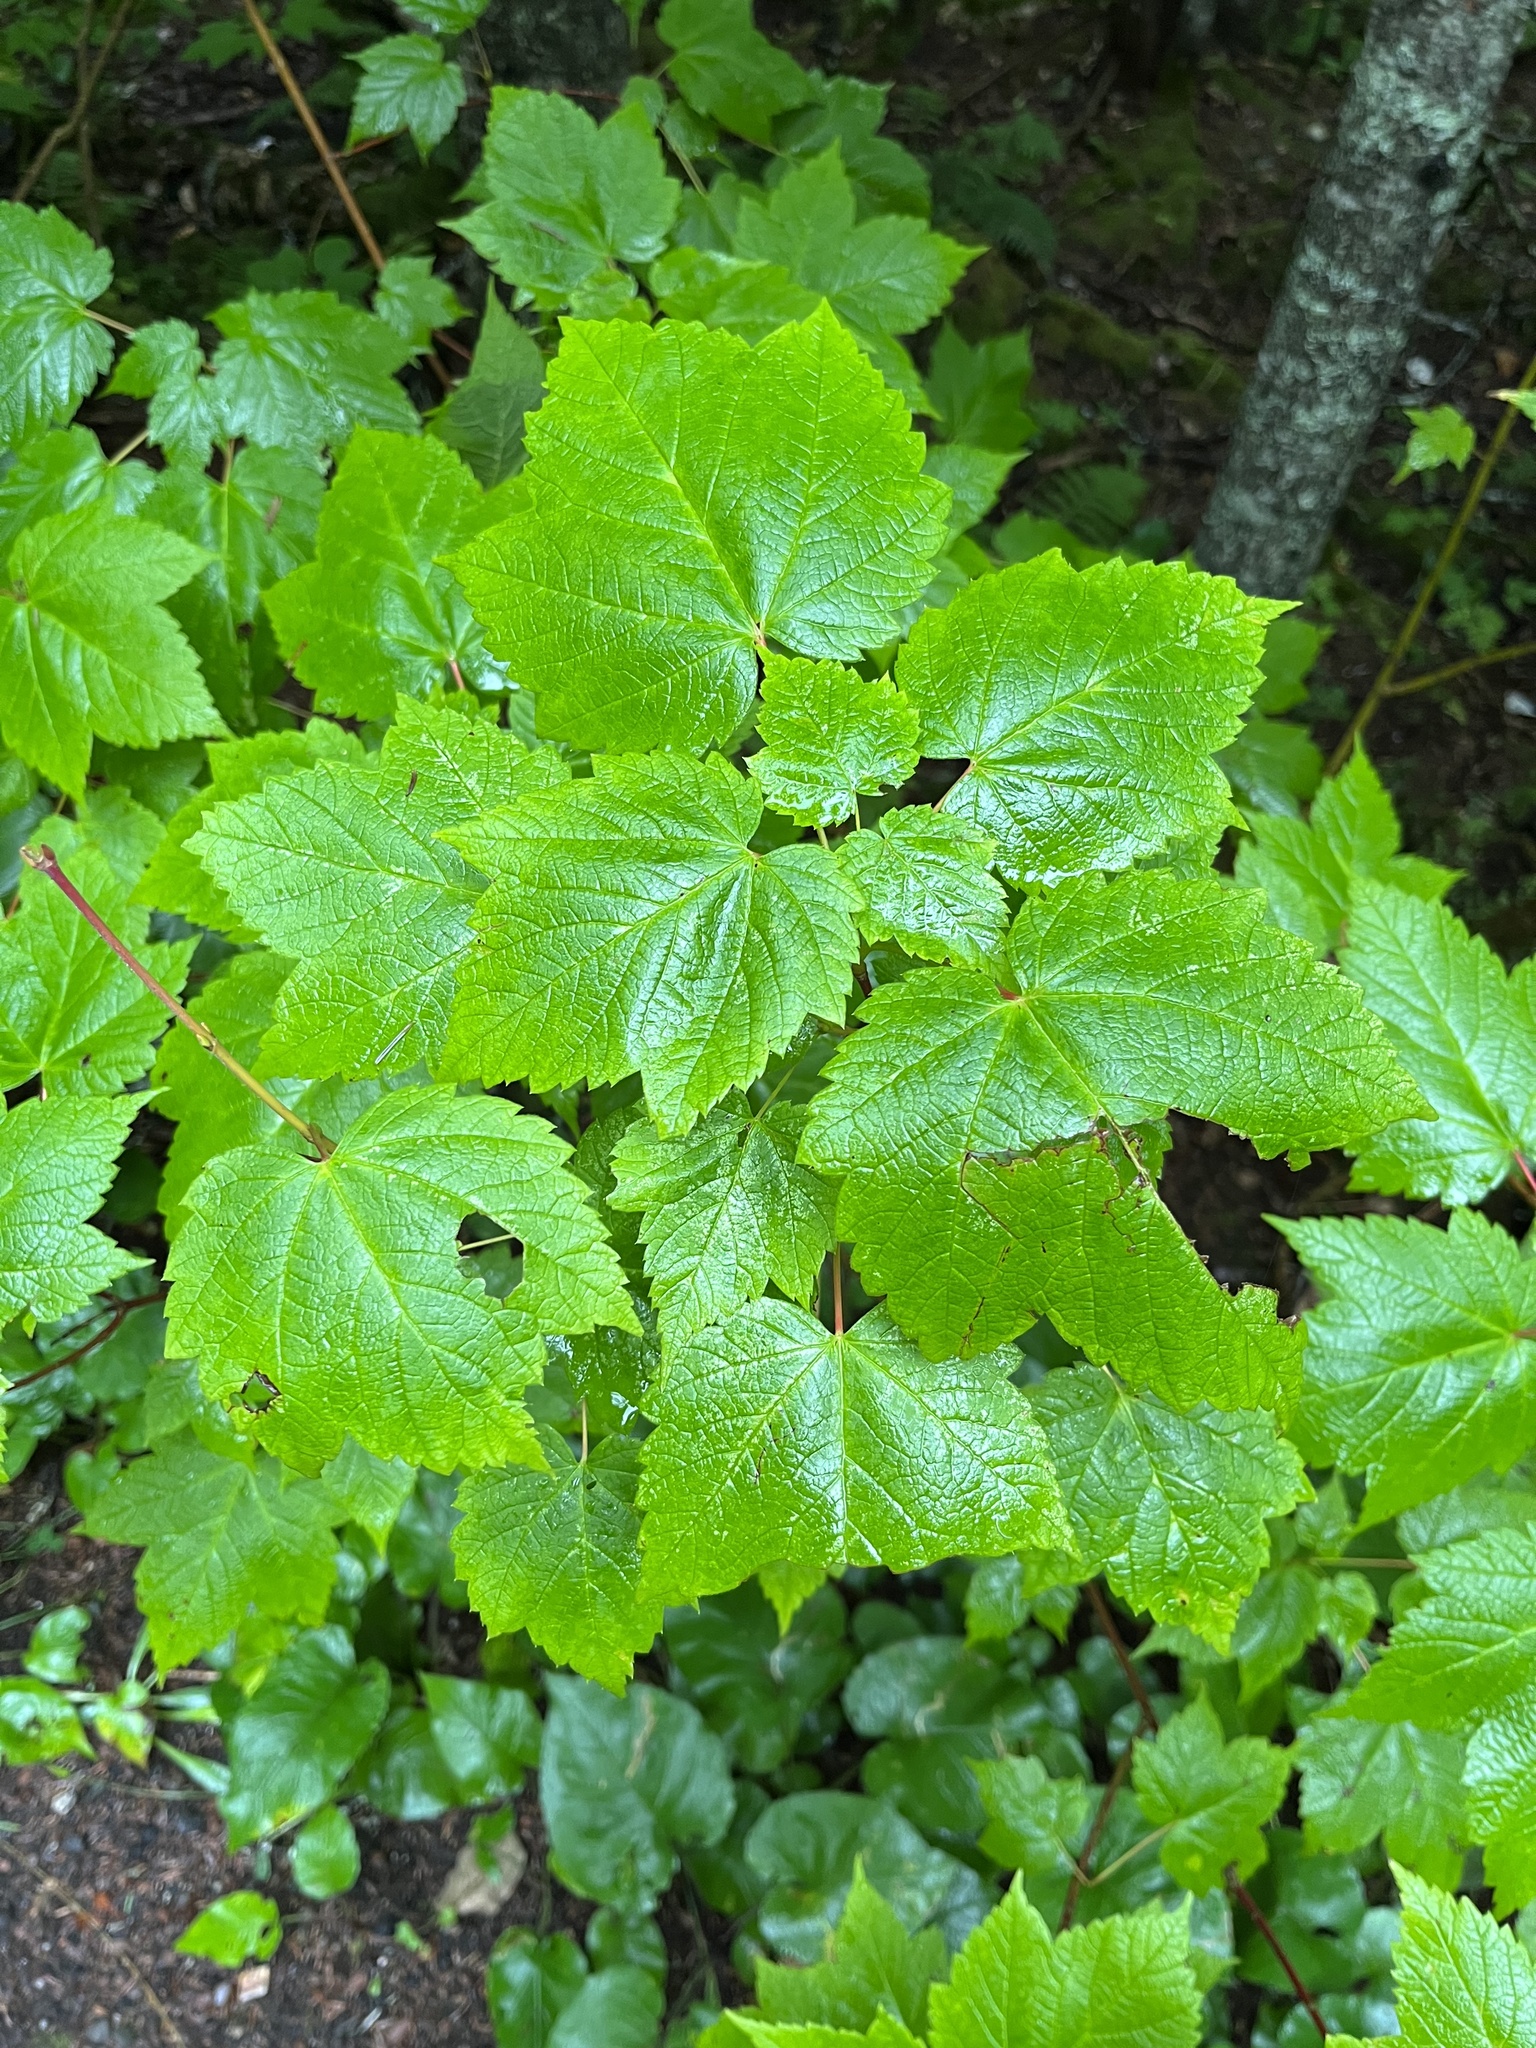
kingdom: Plantae
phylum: Tracheophyta
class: Magnoliopsida
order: Sapindales
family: Sapindaceae
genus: Acer
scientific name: Acer spicatum
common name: Mountain maple
